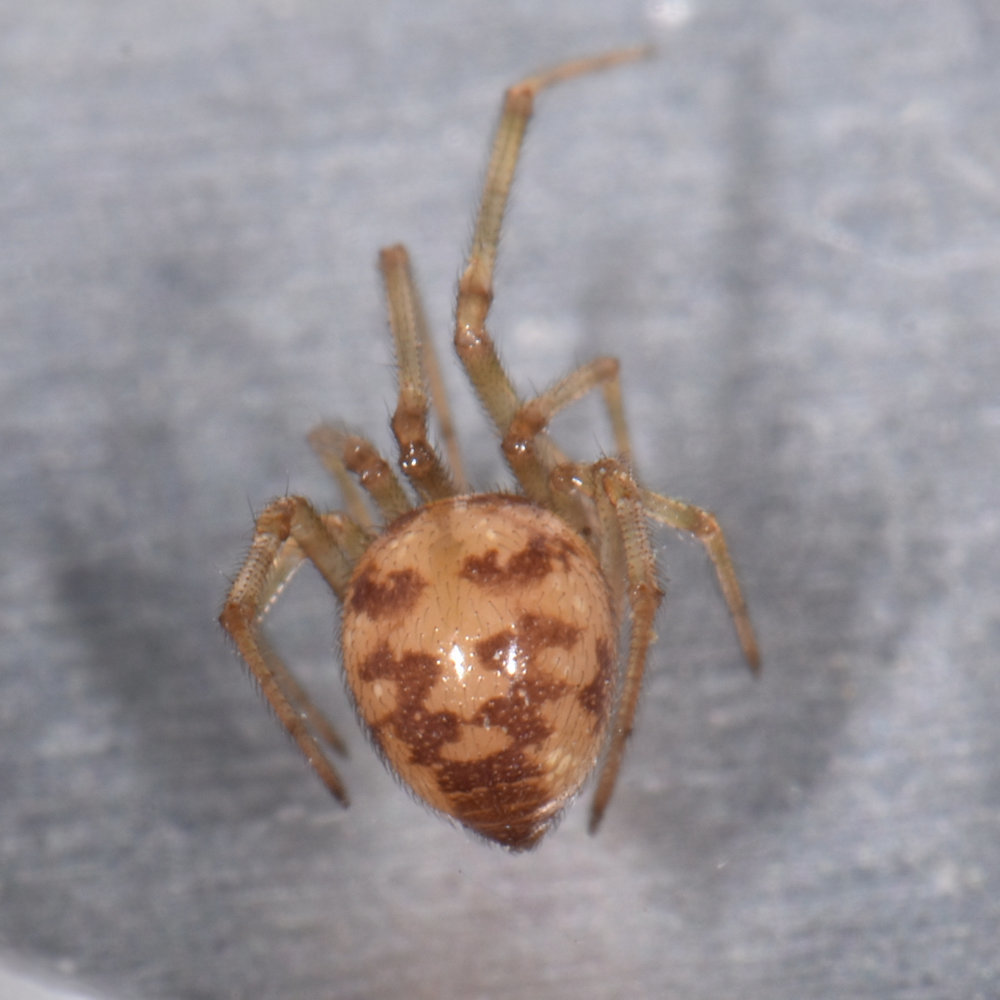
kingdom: Animalia
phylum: Arthropoda
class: Arachnida
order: Araneae
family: Theridiidae
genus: Steatoda
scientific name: Steatoda triangulosa
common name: Triangulate bud spider
